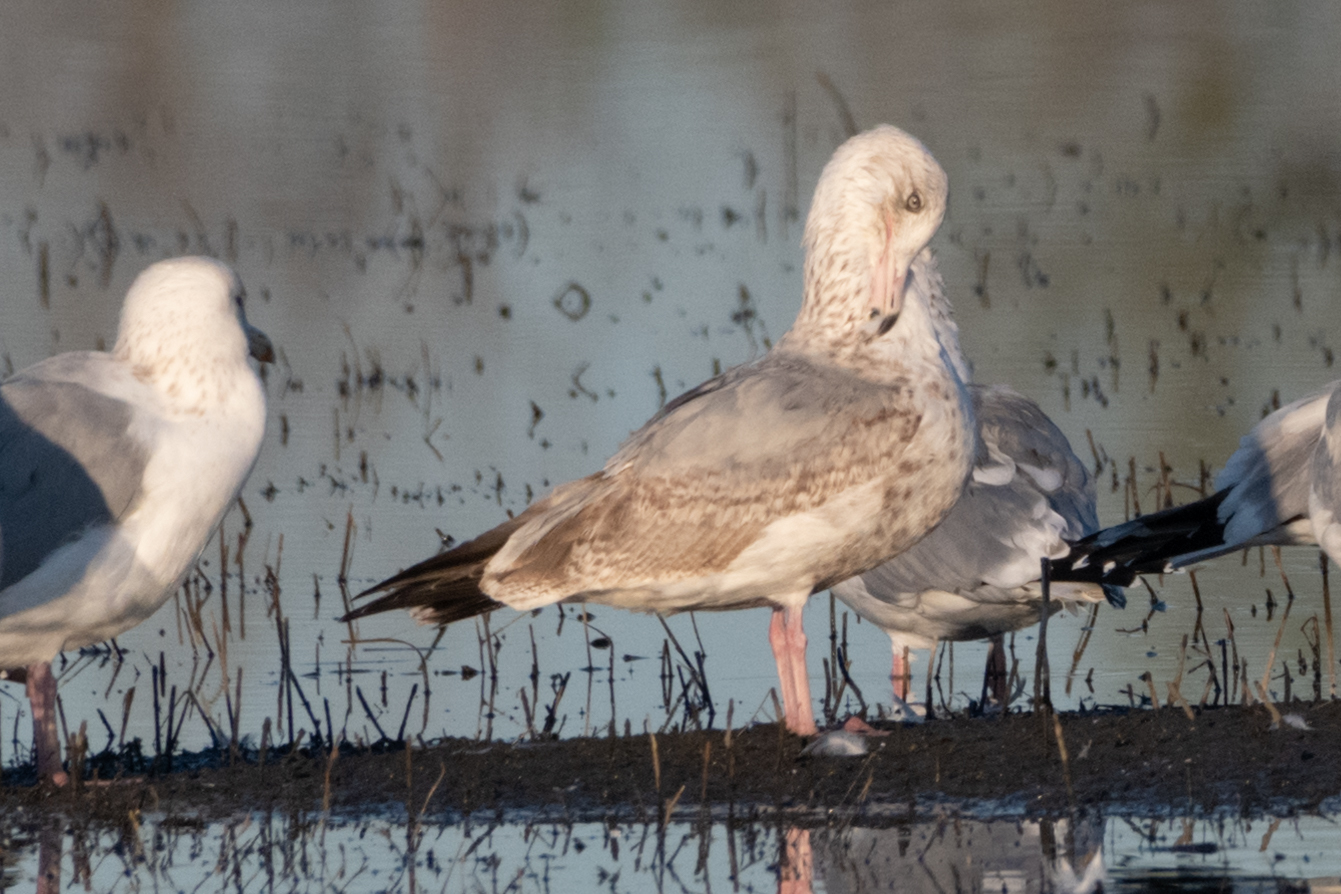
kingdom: Animalia
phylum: Chordata
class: Aves
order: Charadriiformes
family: Laridae
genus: Larus
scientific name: Larus argentatus
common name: Herring gull
